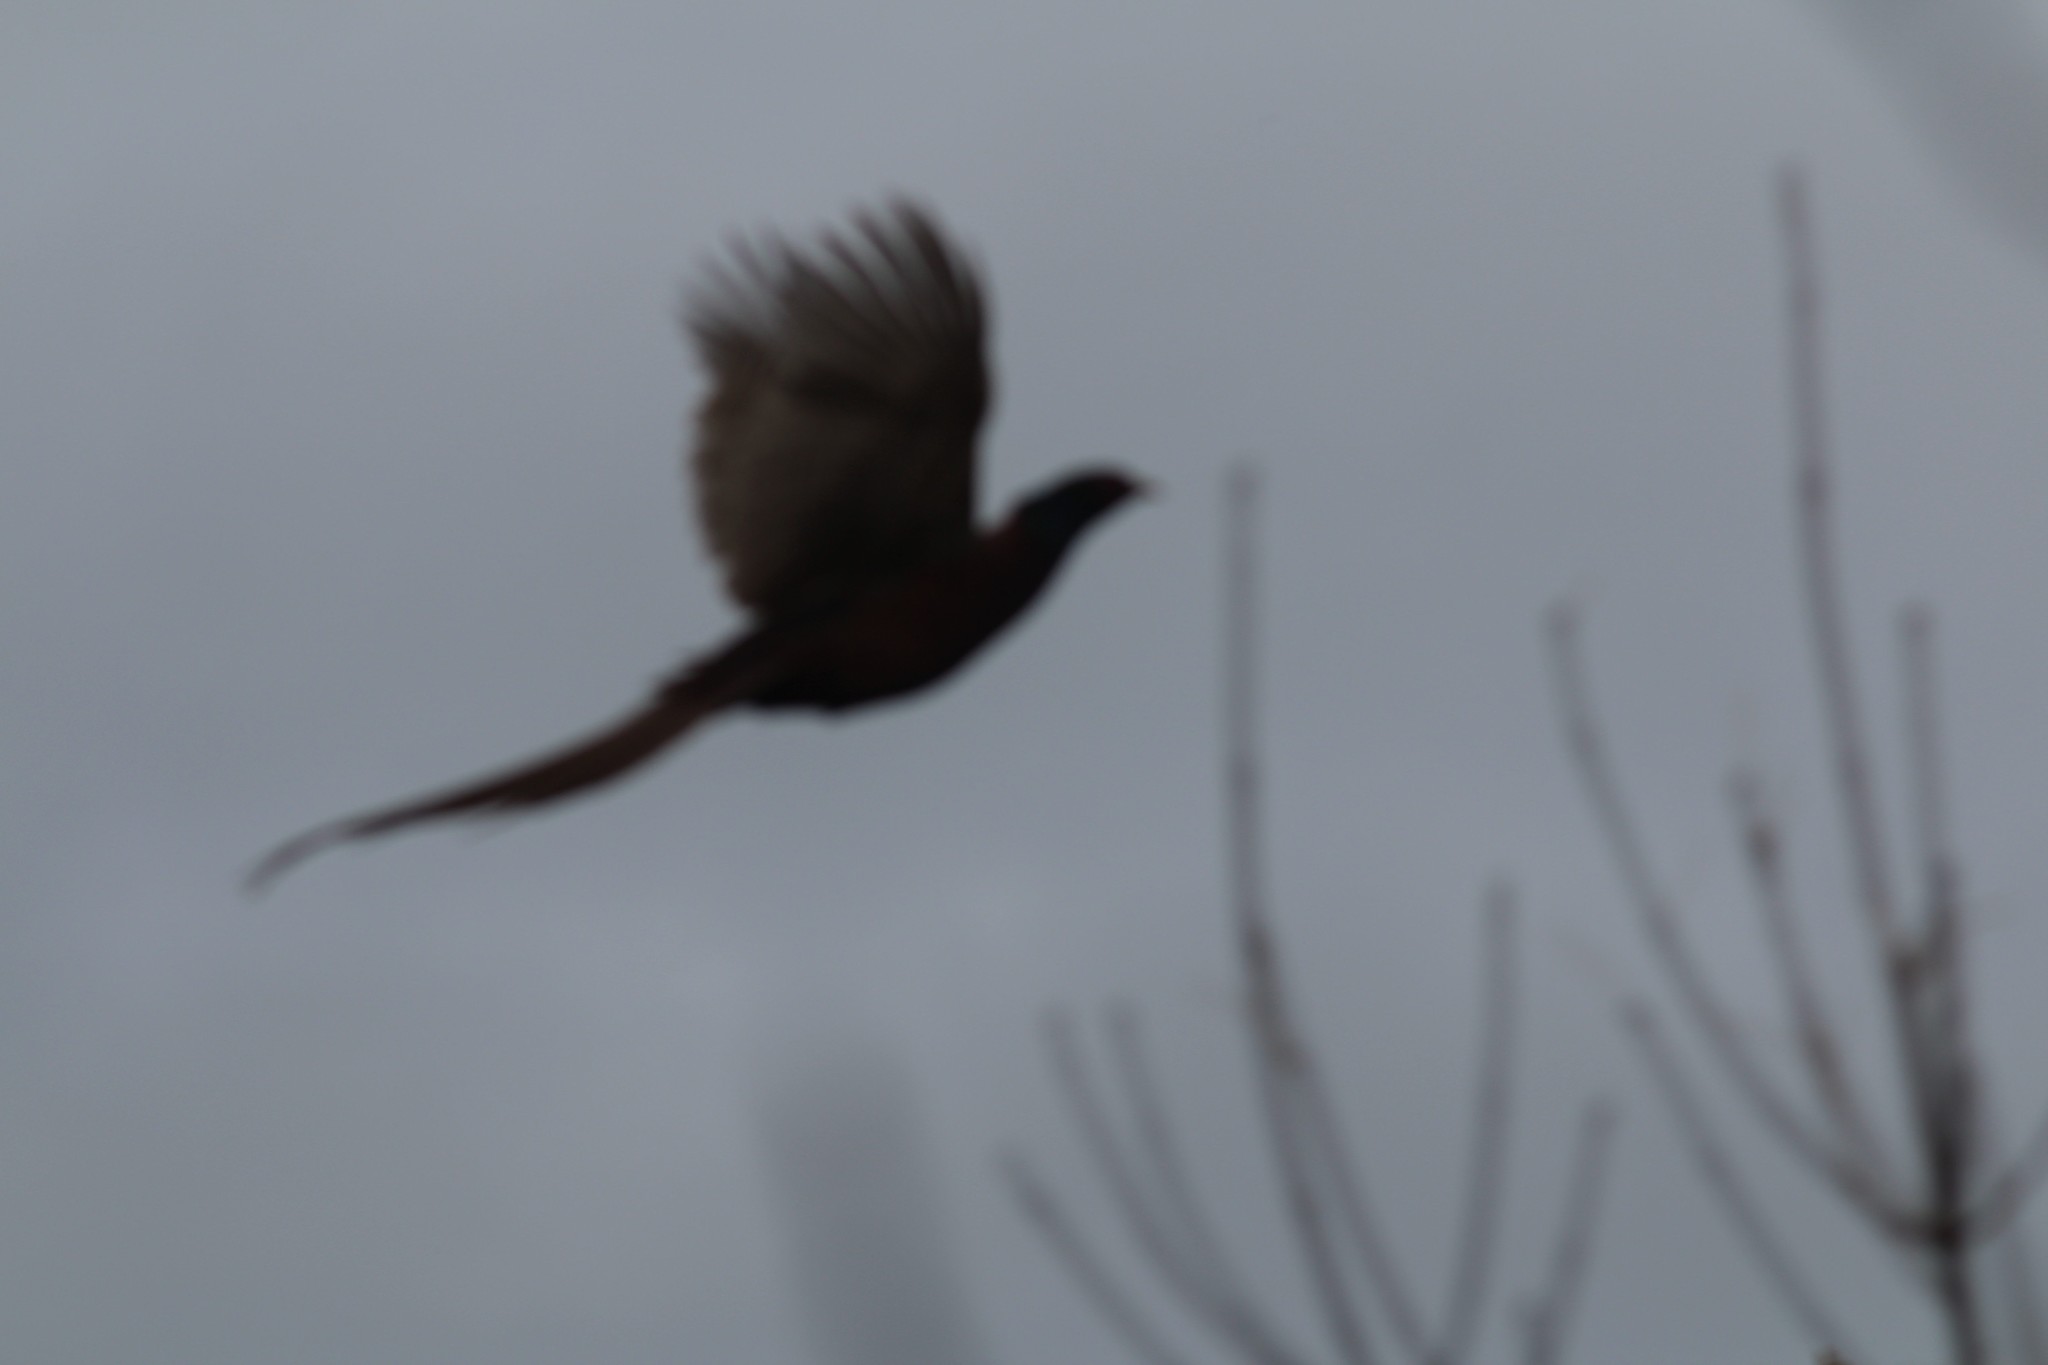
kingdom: Animalia
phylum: Chordata
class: Aves
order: Galliformes
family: Phasianidae
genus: Phasianus
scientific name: Phasianus colchicus
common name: Common pheasant
